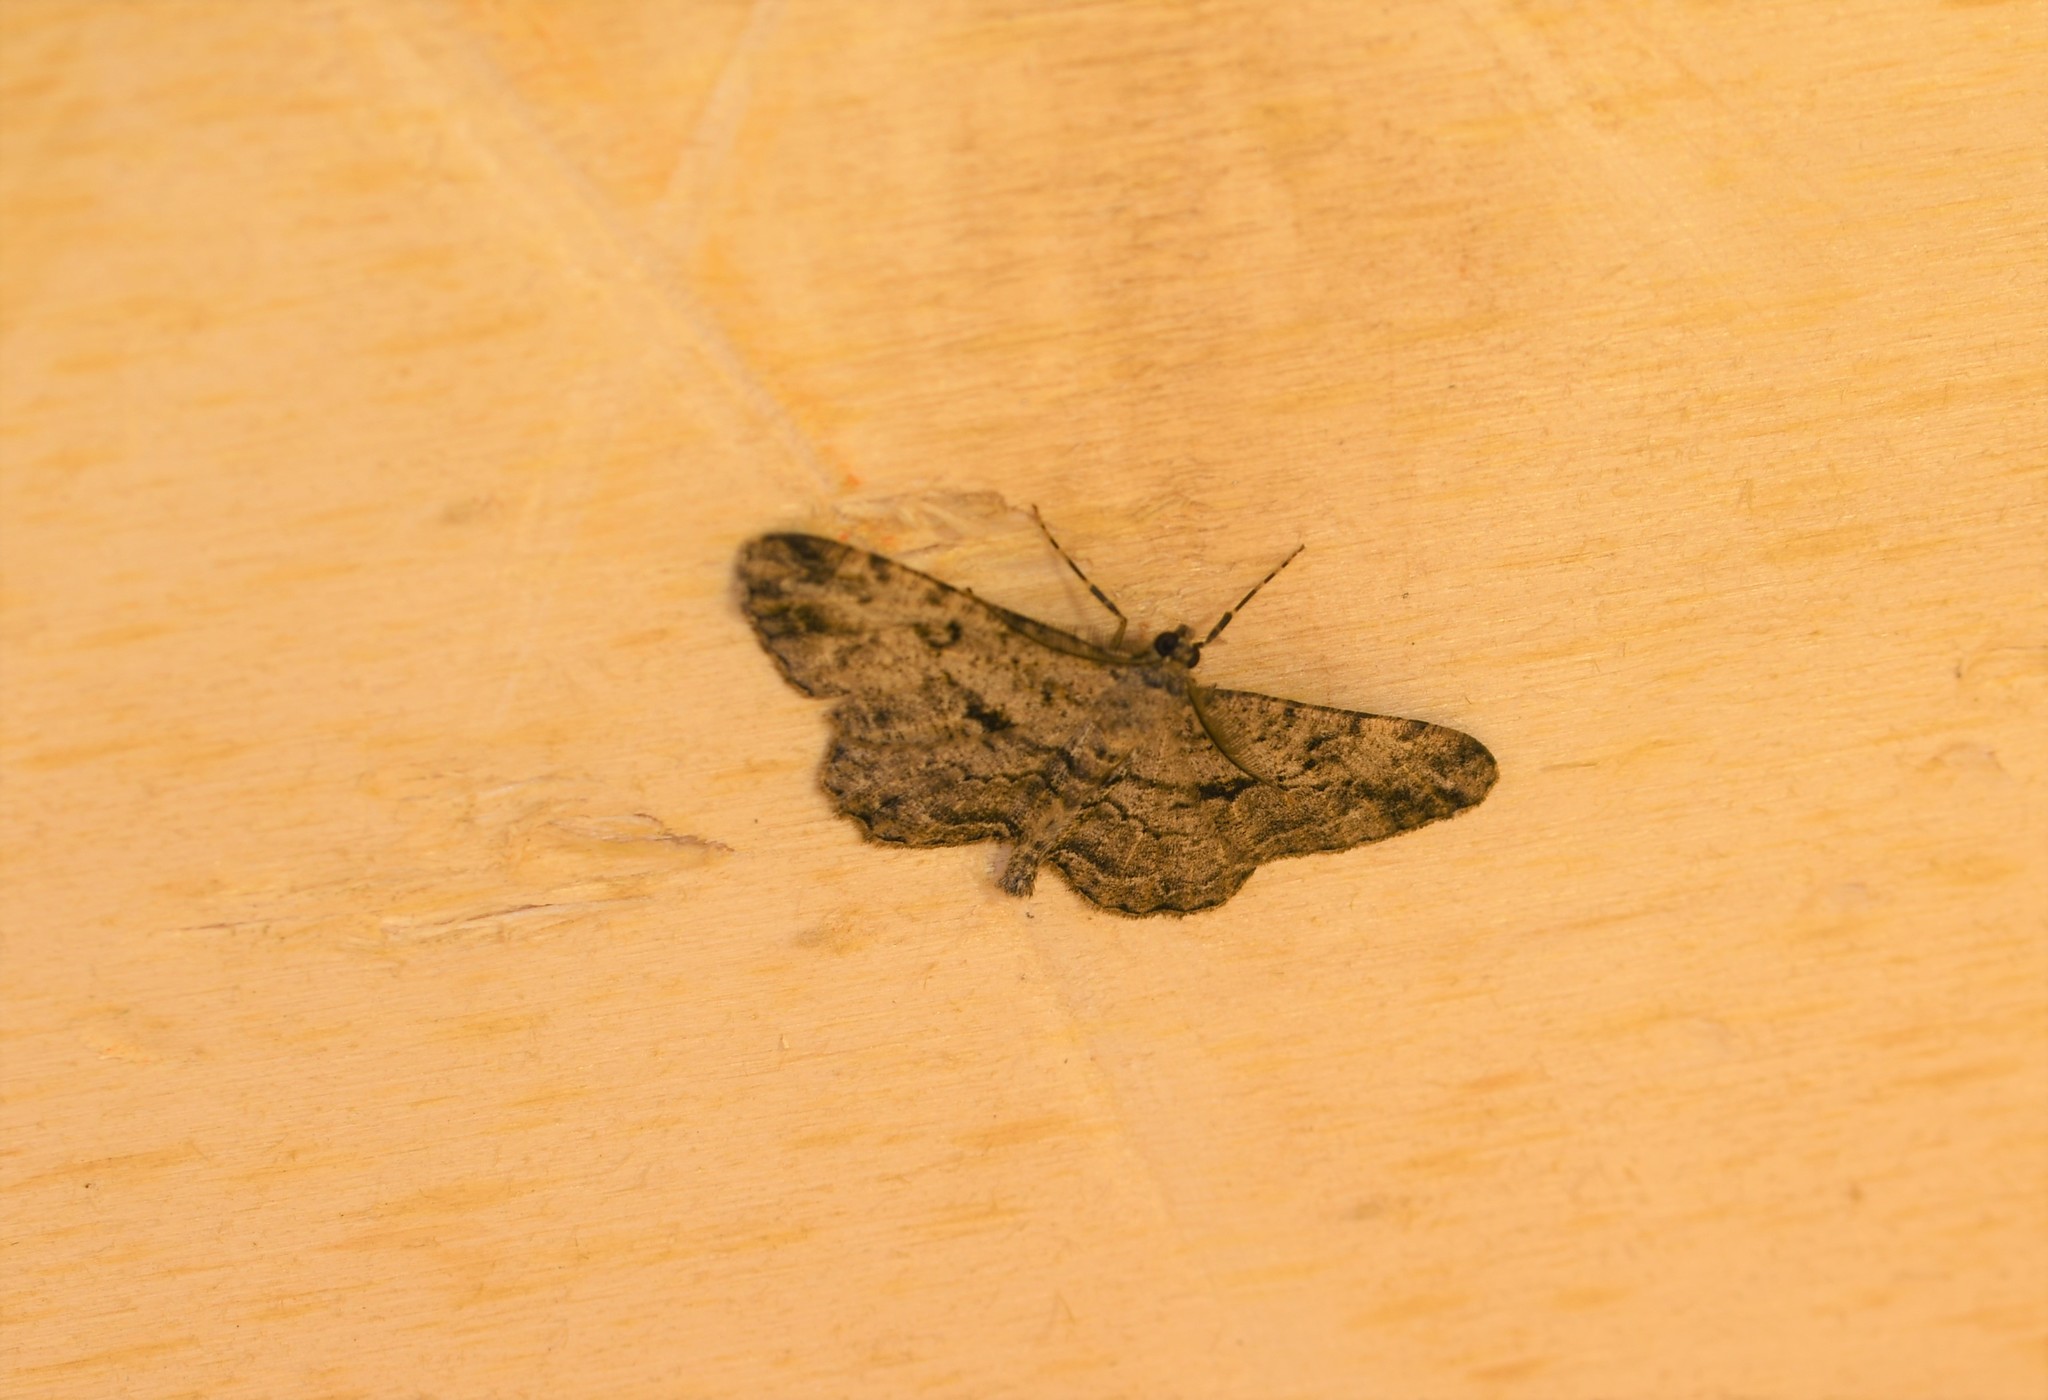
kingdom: Animalia
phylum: Arthropoda
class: Insecta
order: Lepidoptera
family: Geometridae
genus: Peribatodes
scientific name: Peribatodes rhomboidaria
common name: Willow beauty
